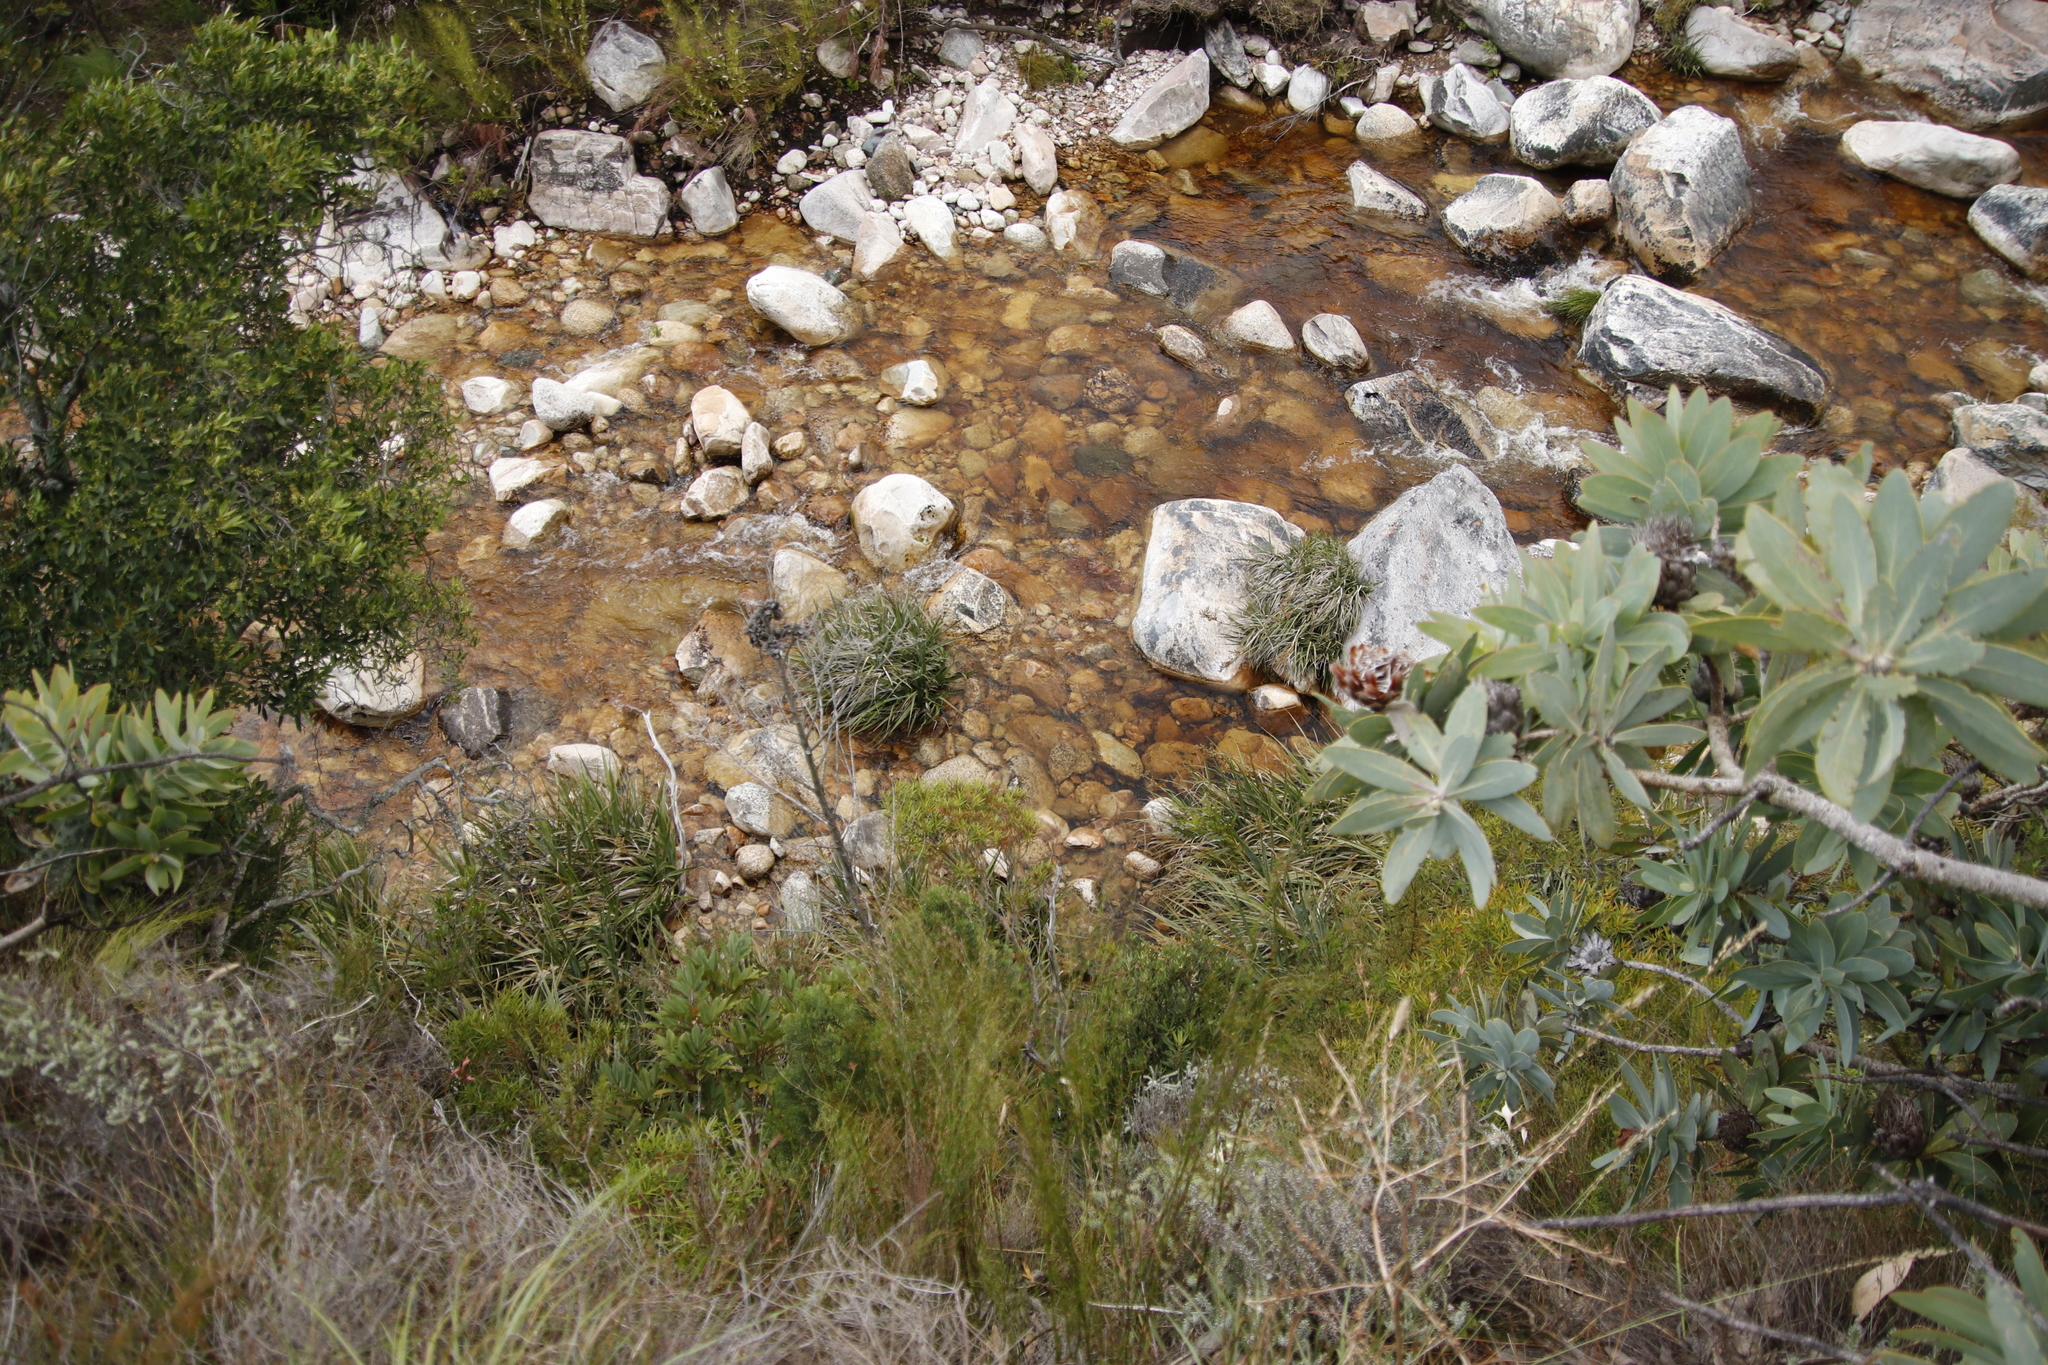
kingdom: Plantae
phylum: Tracheophyta
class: Magnoliopsida
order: Proteales
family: Proteaceae
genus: Protea
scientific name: Protea nitida
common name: Tree protea
